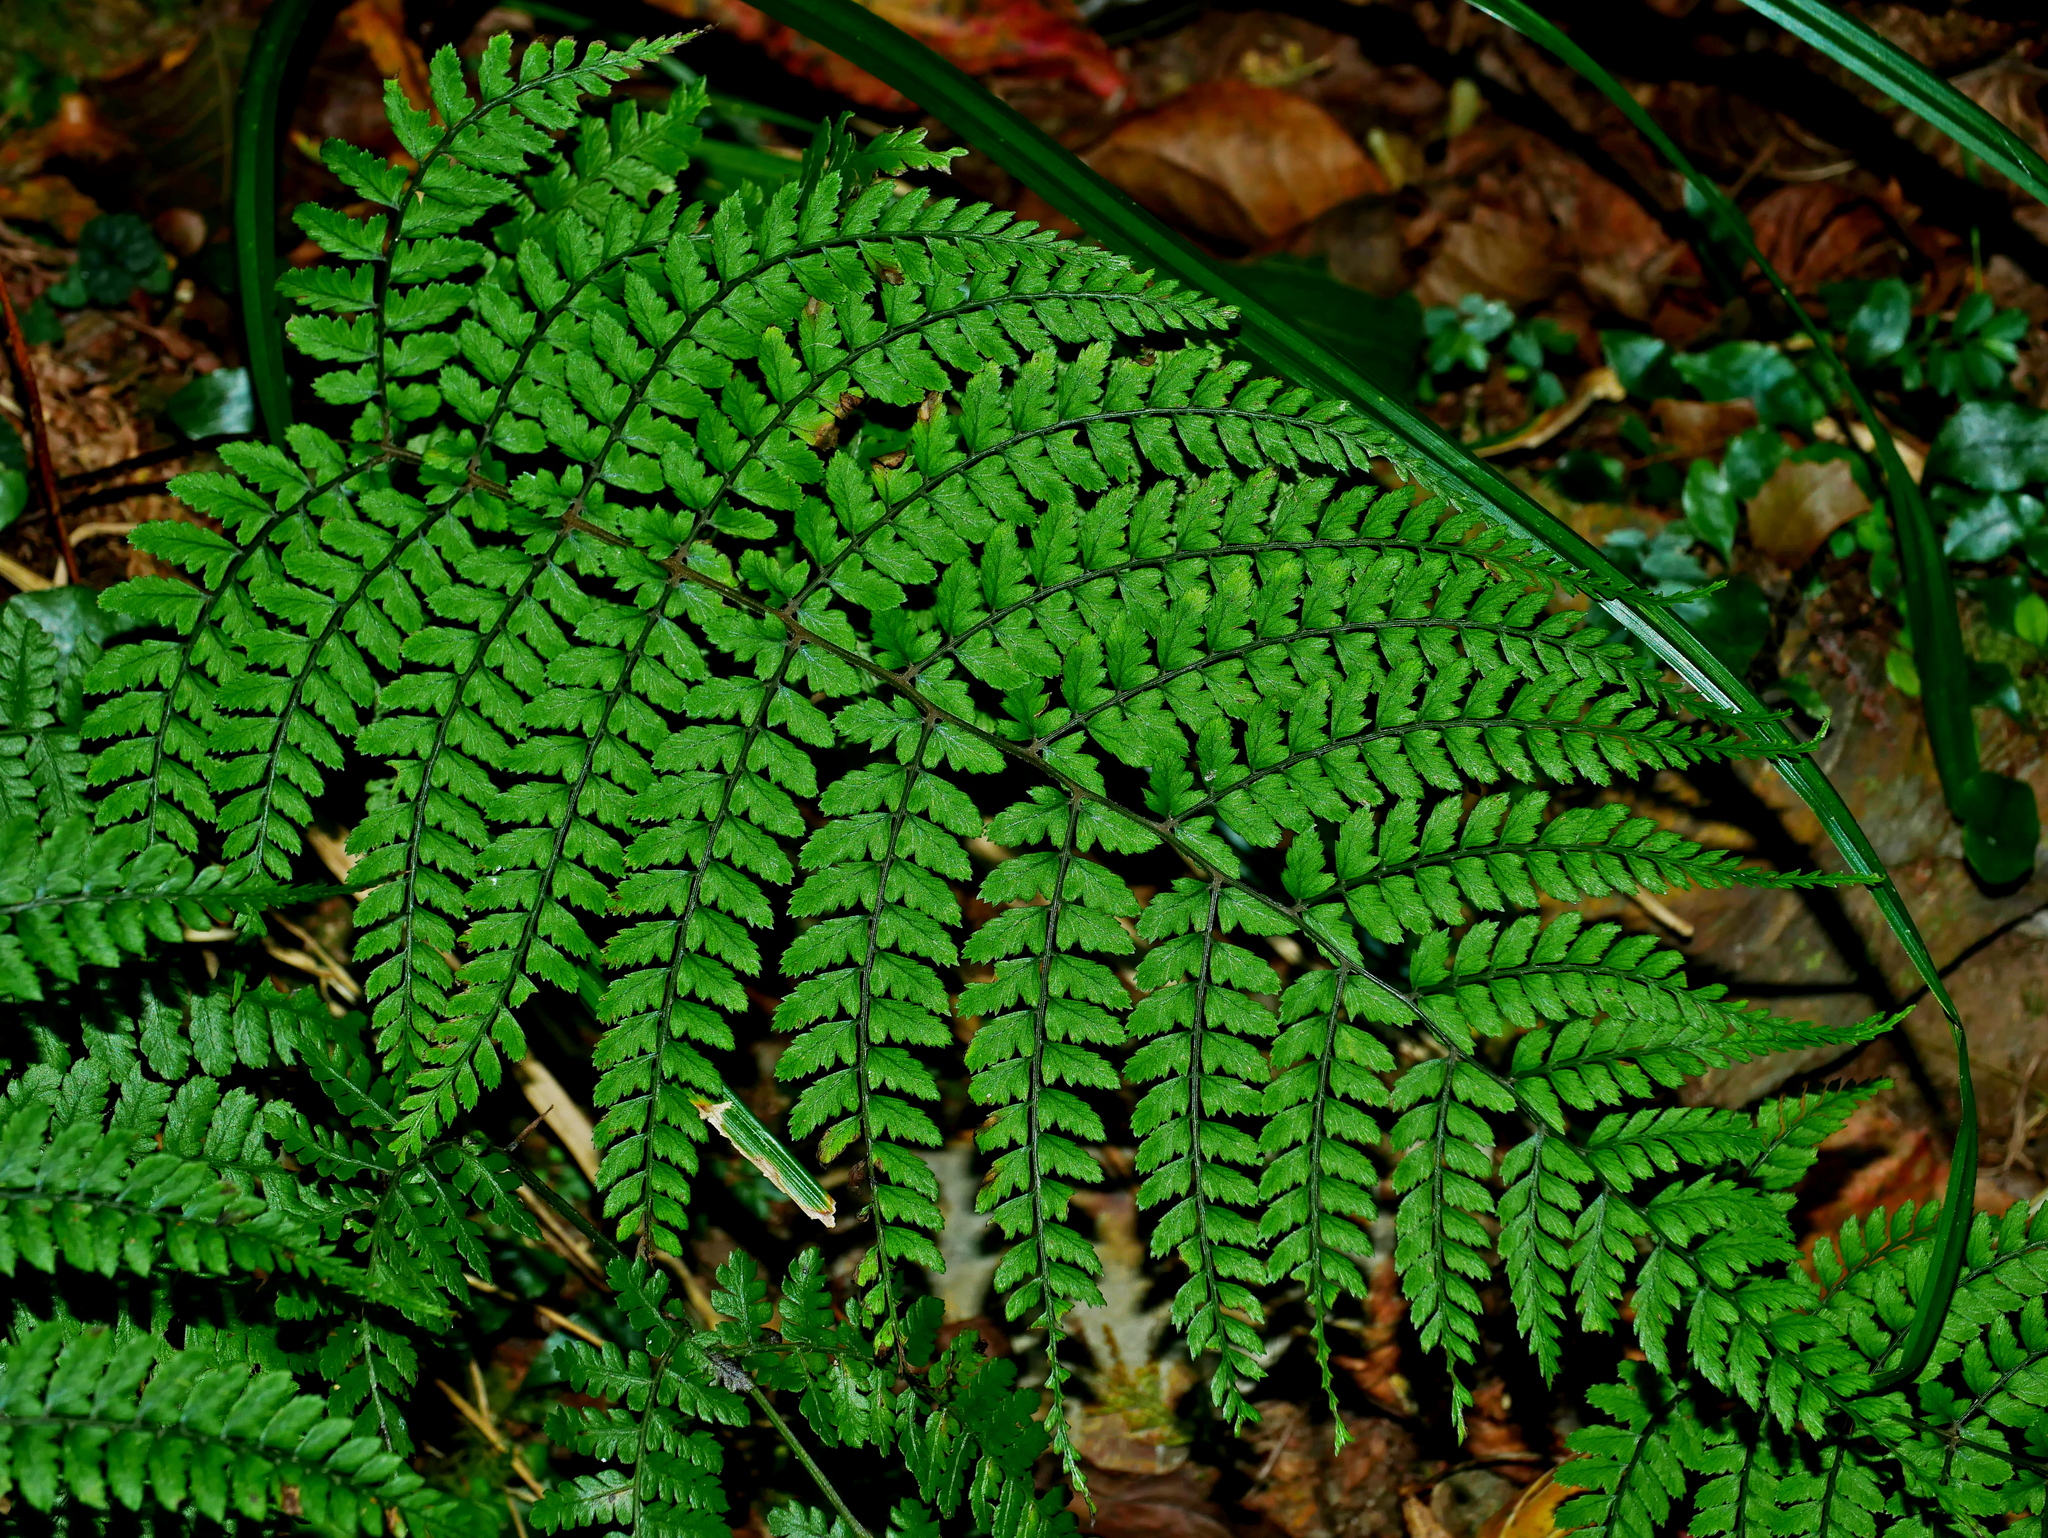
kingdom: Plantae
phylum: Tracheophyta
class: Polypodiopsida
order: Polypodiales
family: Athyriaceae
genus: Athyrium
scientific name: Athyrium subrigescens
